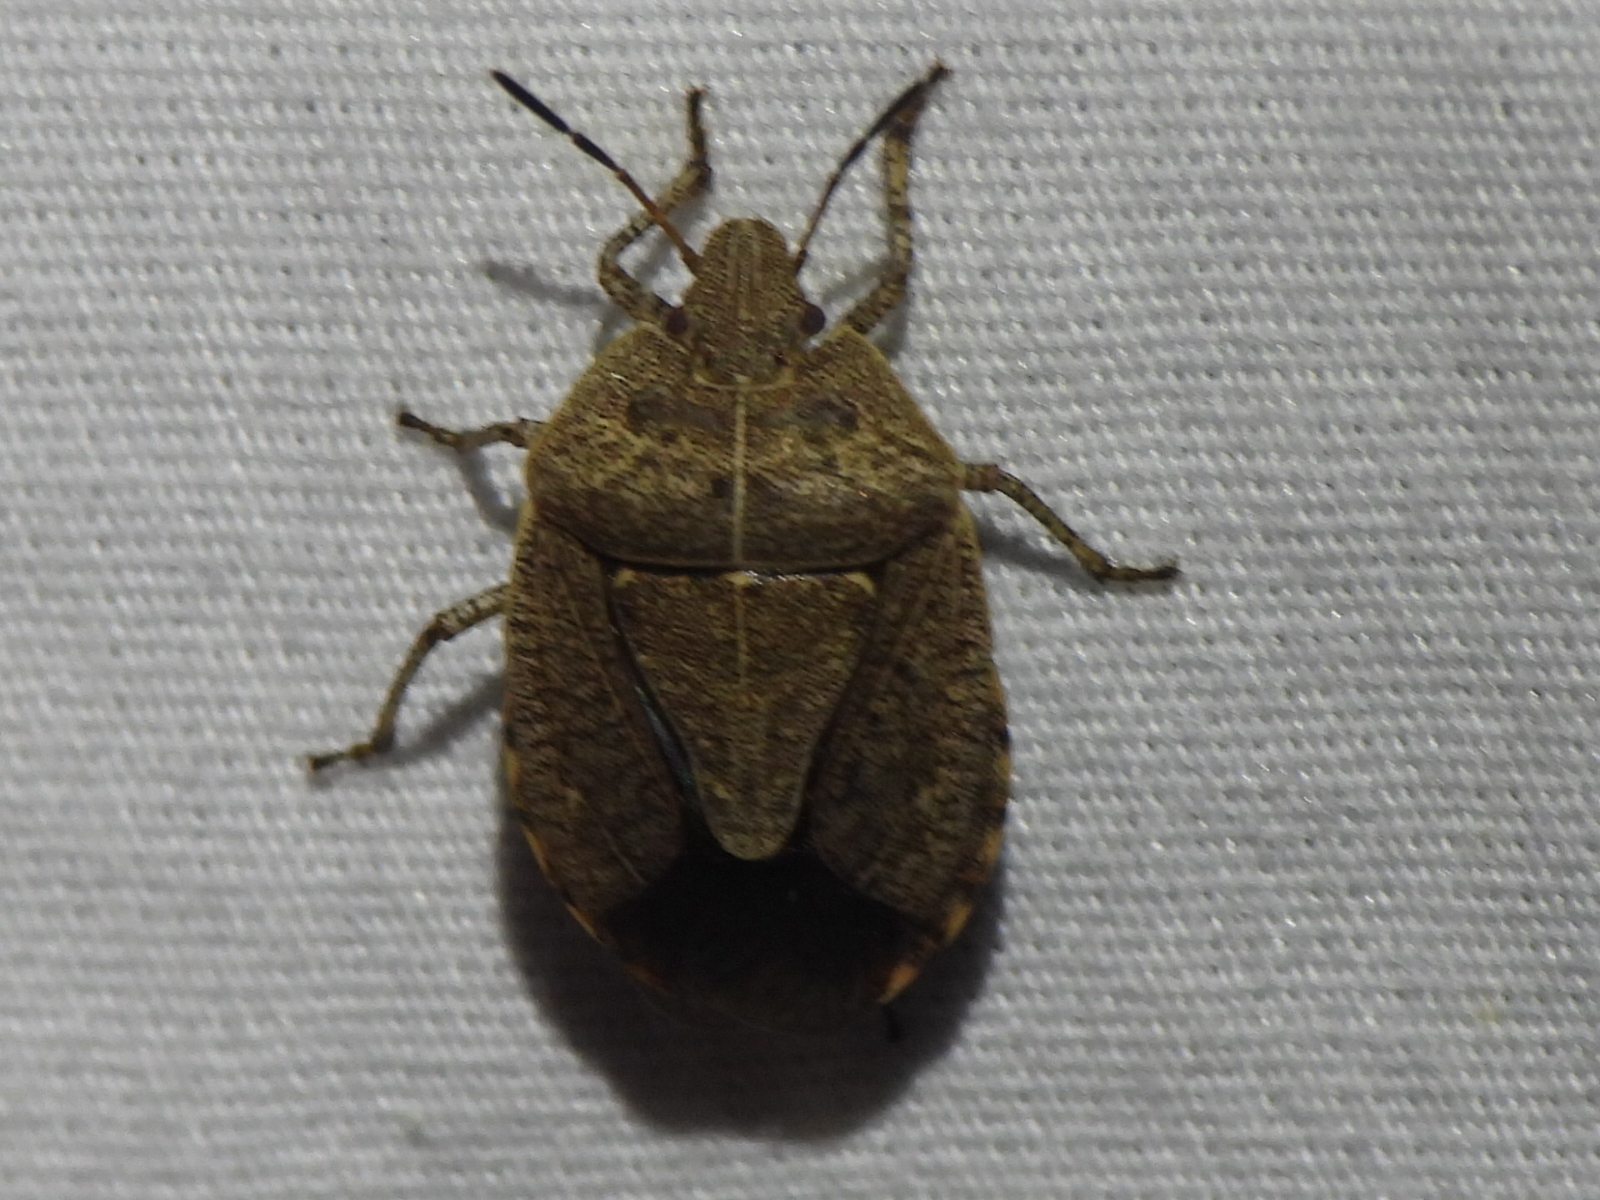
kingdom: Animalia
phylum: Arthropoda
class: Insecta
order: Hemiptera
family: Pentatomidae
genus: Menecles
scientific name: Menecles insertus
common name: Elf shoe stink bug
